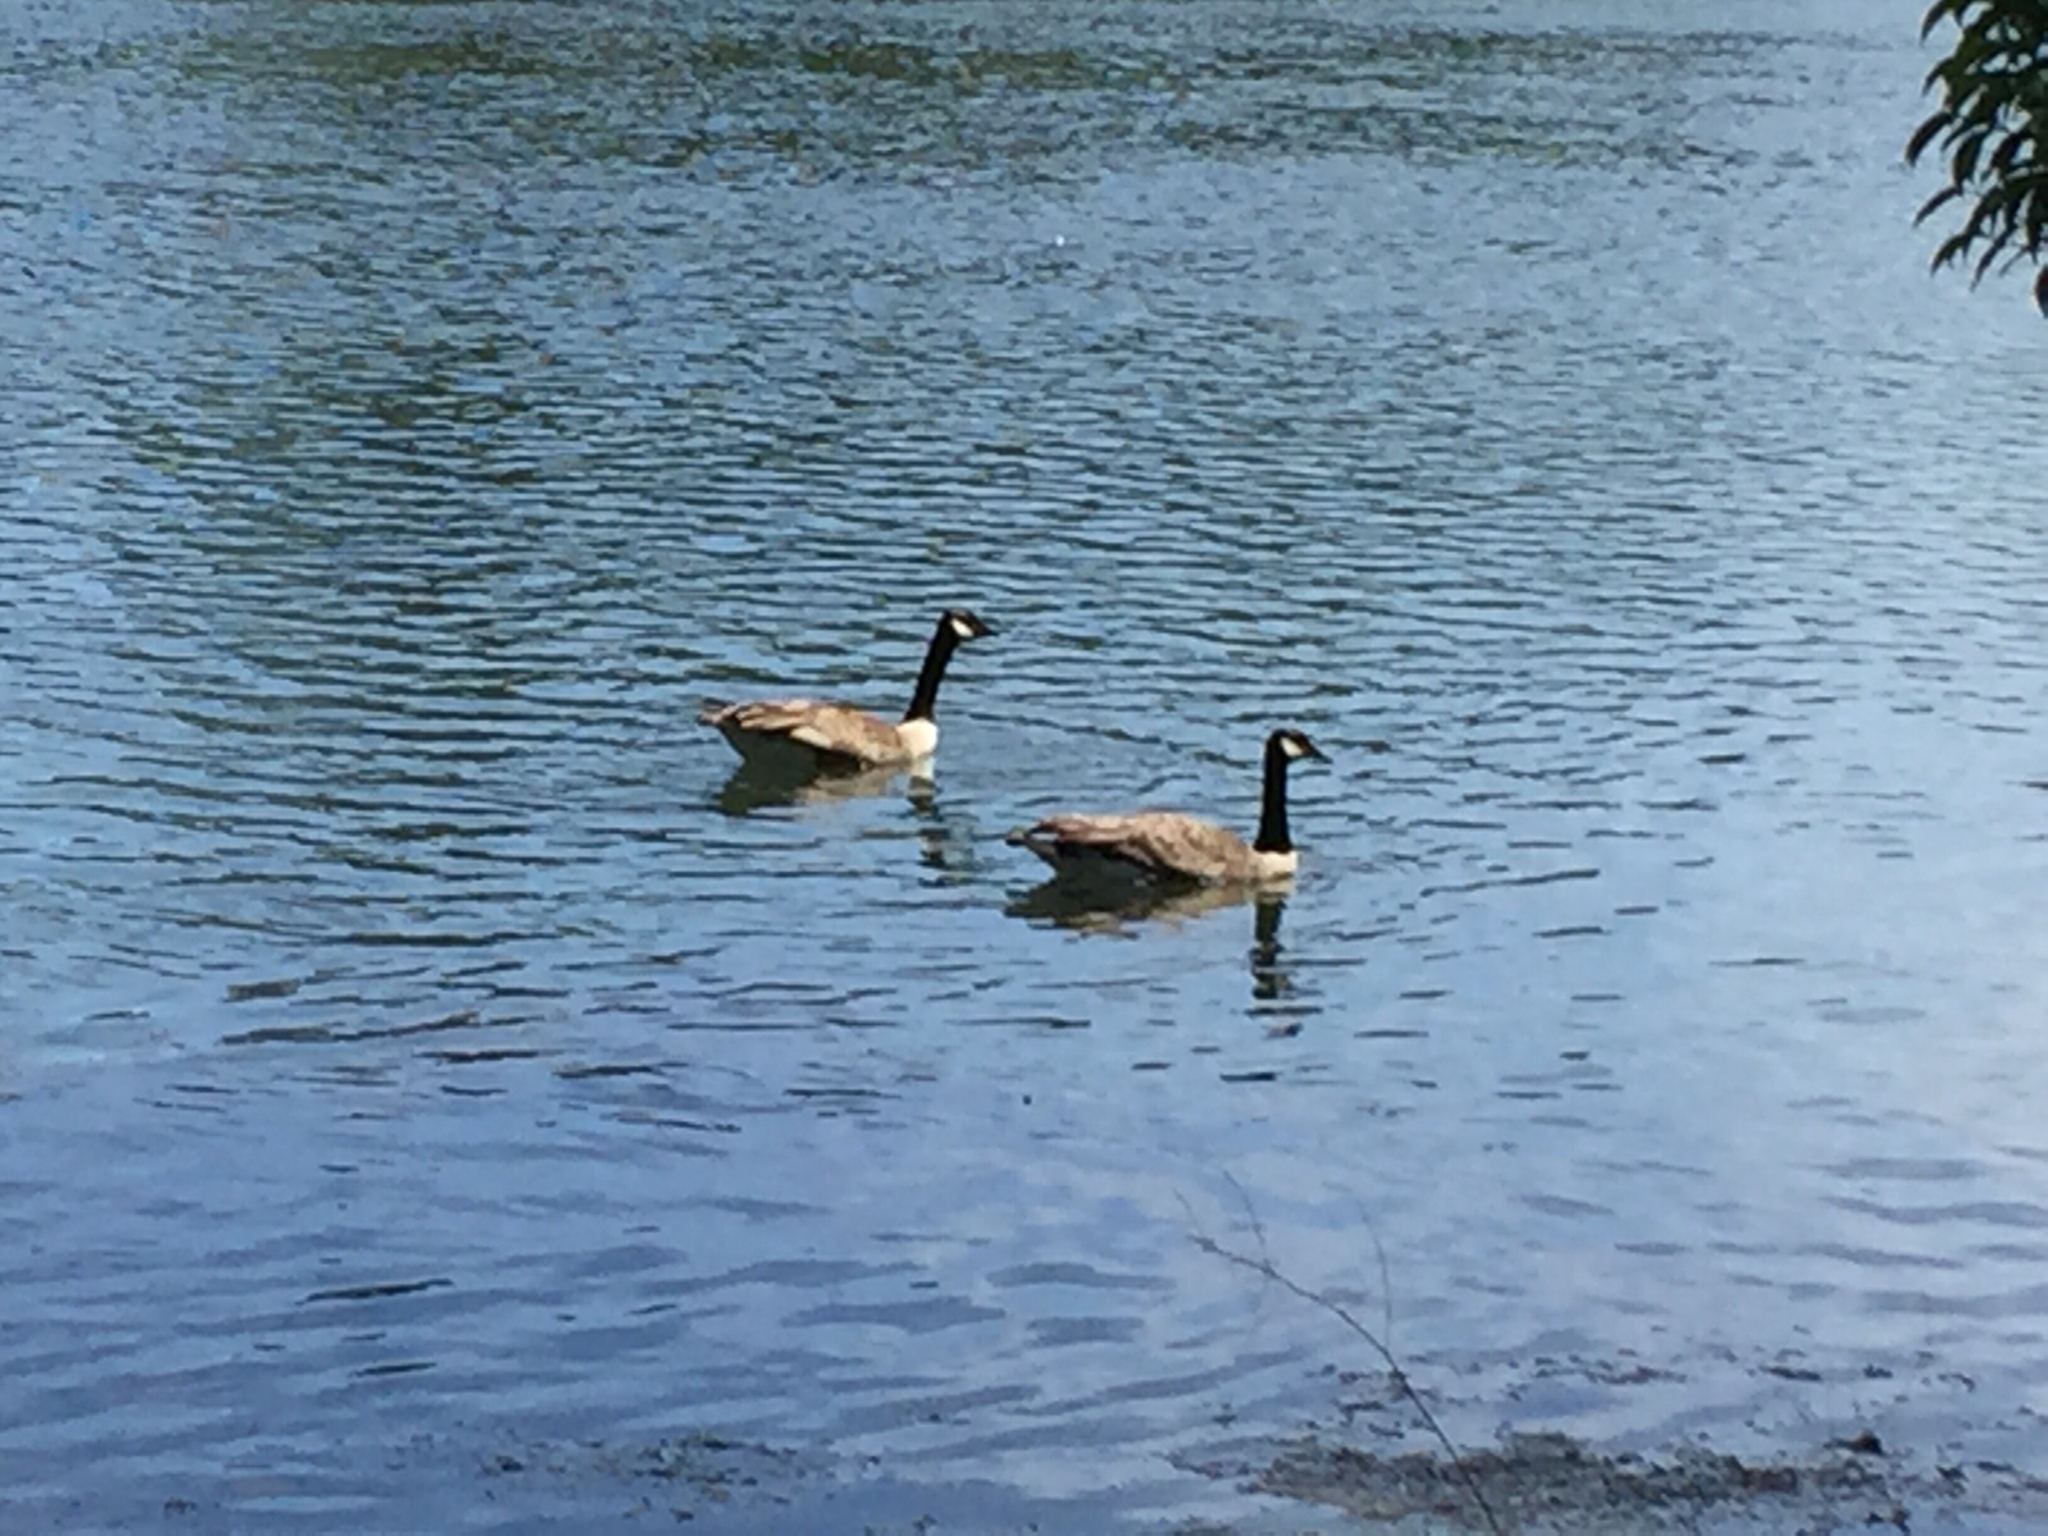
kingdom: Animalia
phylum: Chordata
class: Aves
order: Anseriformes
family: Anatidae
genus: Branta
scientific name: Branta canadensis
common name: Canada goose
